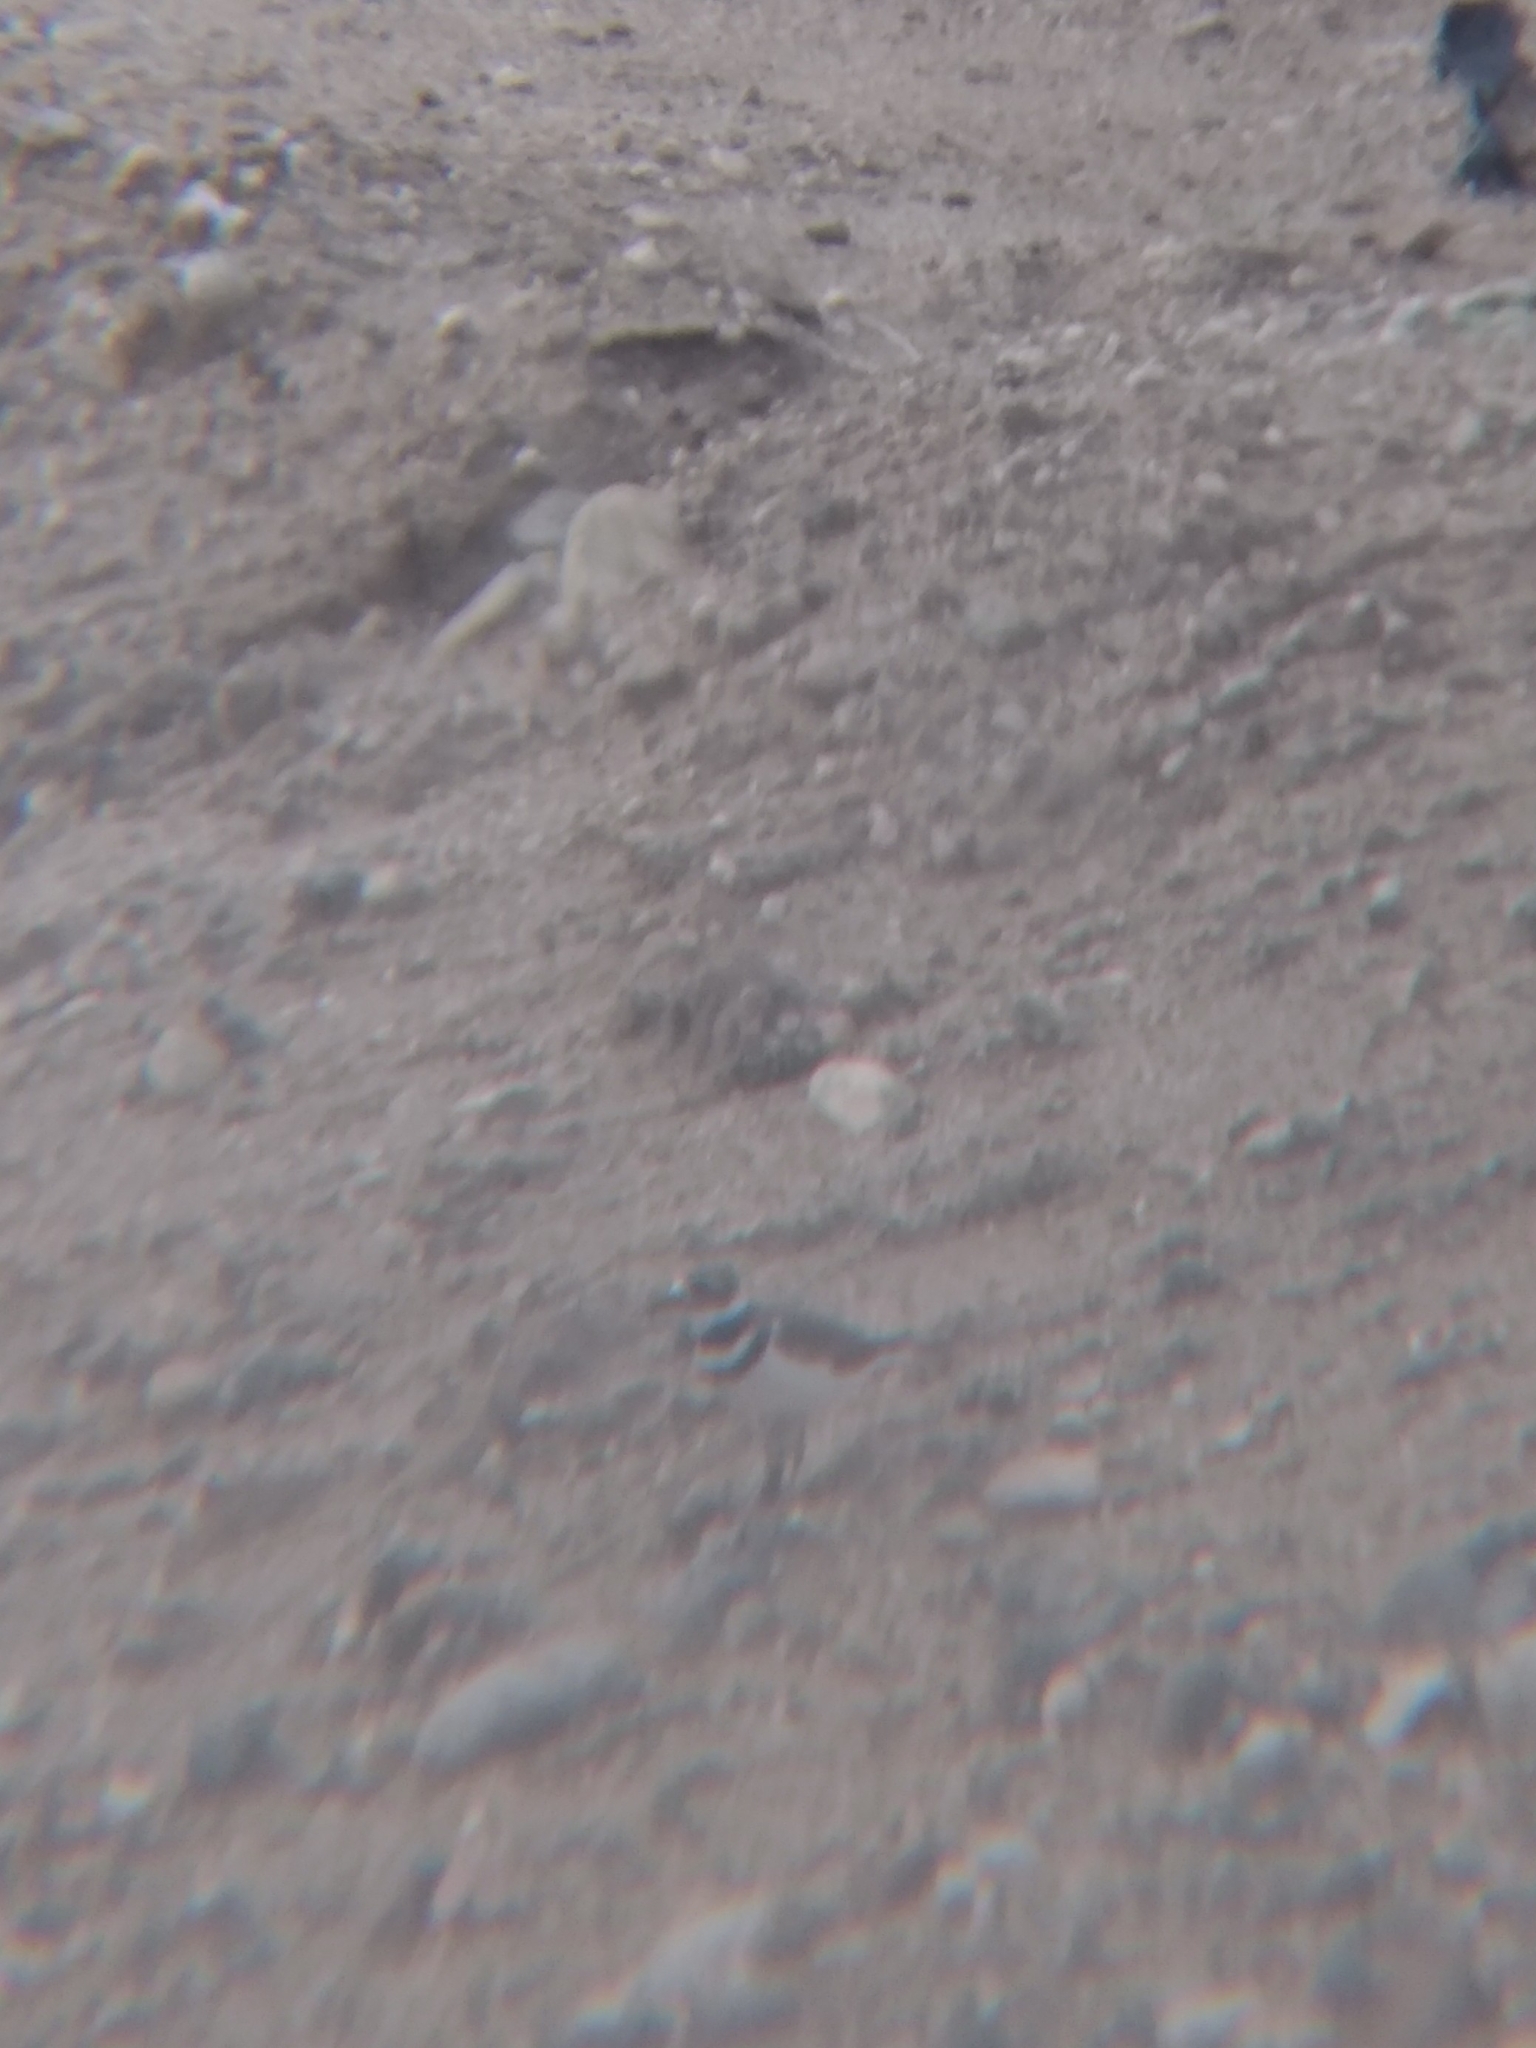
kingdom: Animalia
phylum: Chordata
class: Aves
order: Charadriiformes
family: Charadriidae
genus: Charadrius
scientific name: Charadrius vociferus
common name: Killdeer
